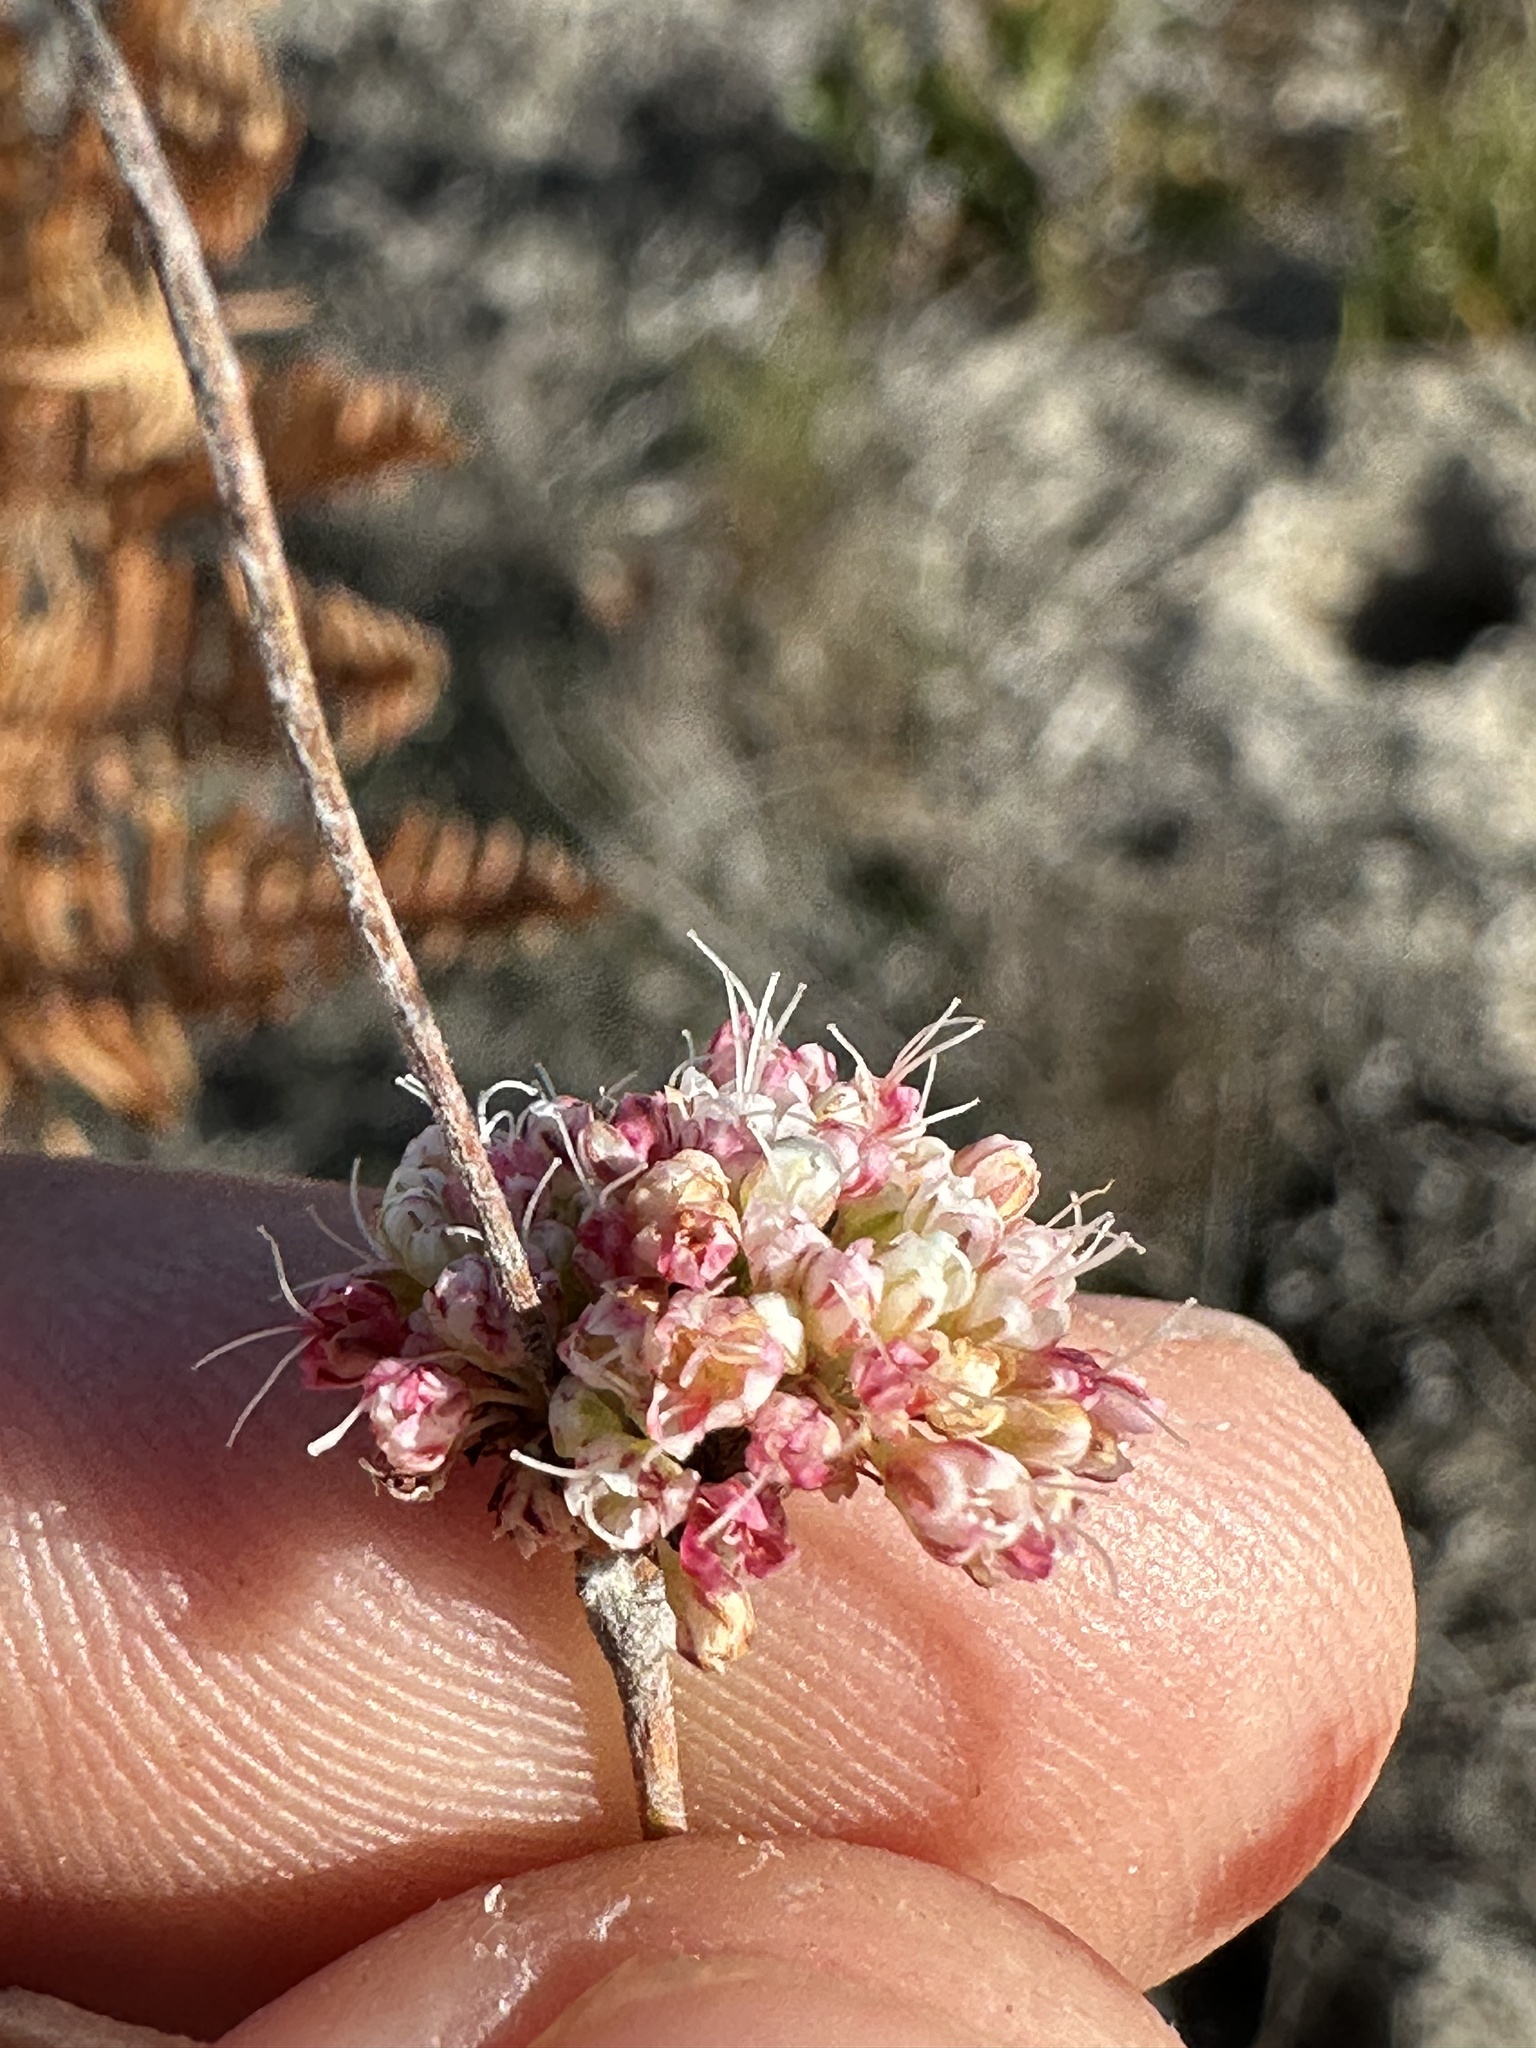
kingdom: Plantae
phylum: Tracheophyta
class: Magnoliopsida
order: Caryophyllales
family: Polygonaceae
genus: Eriogonum
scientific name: Eriogonum nudum
